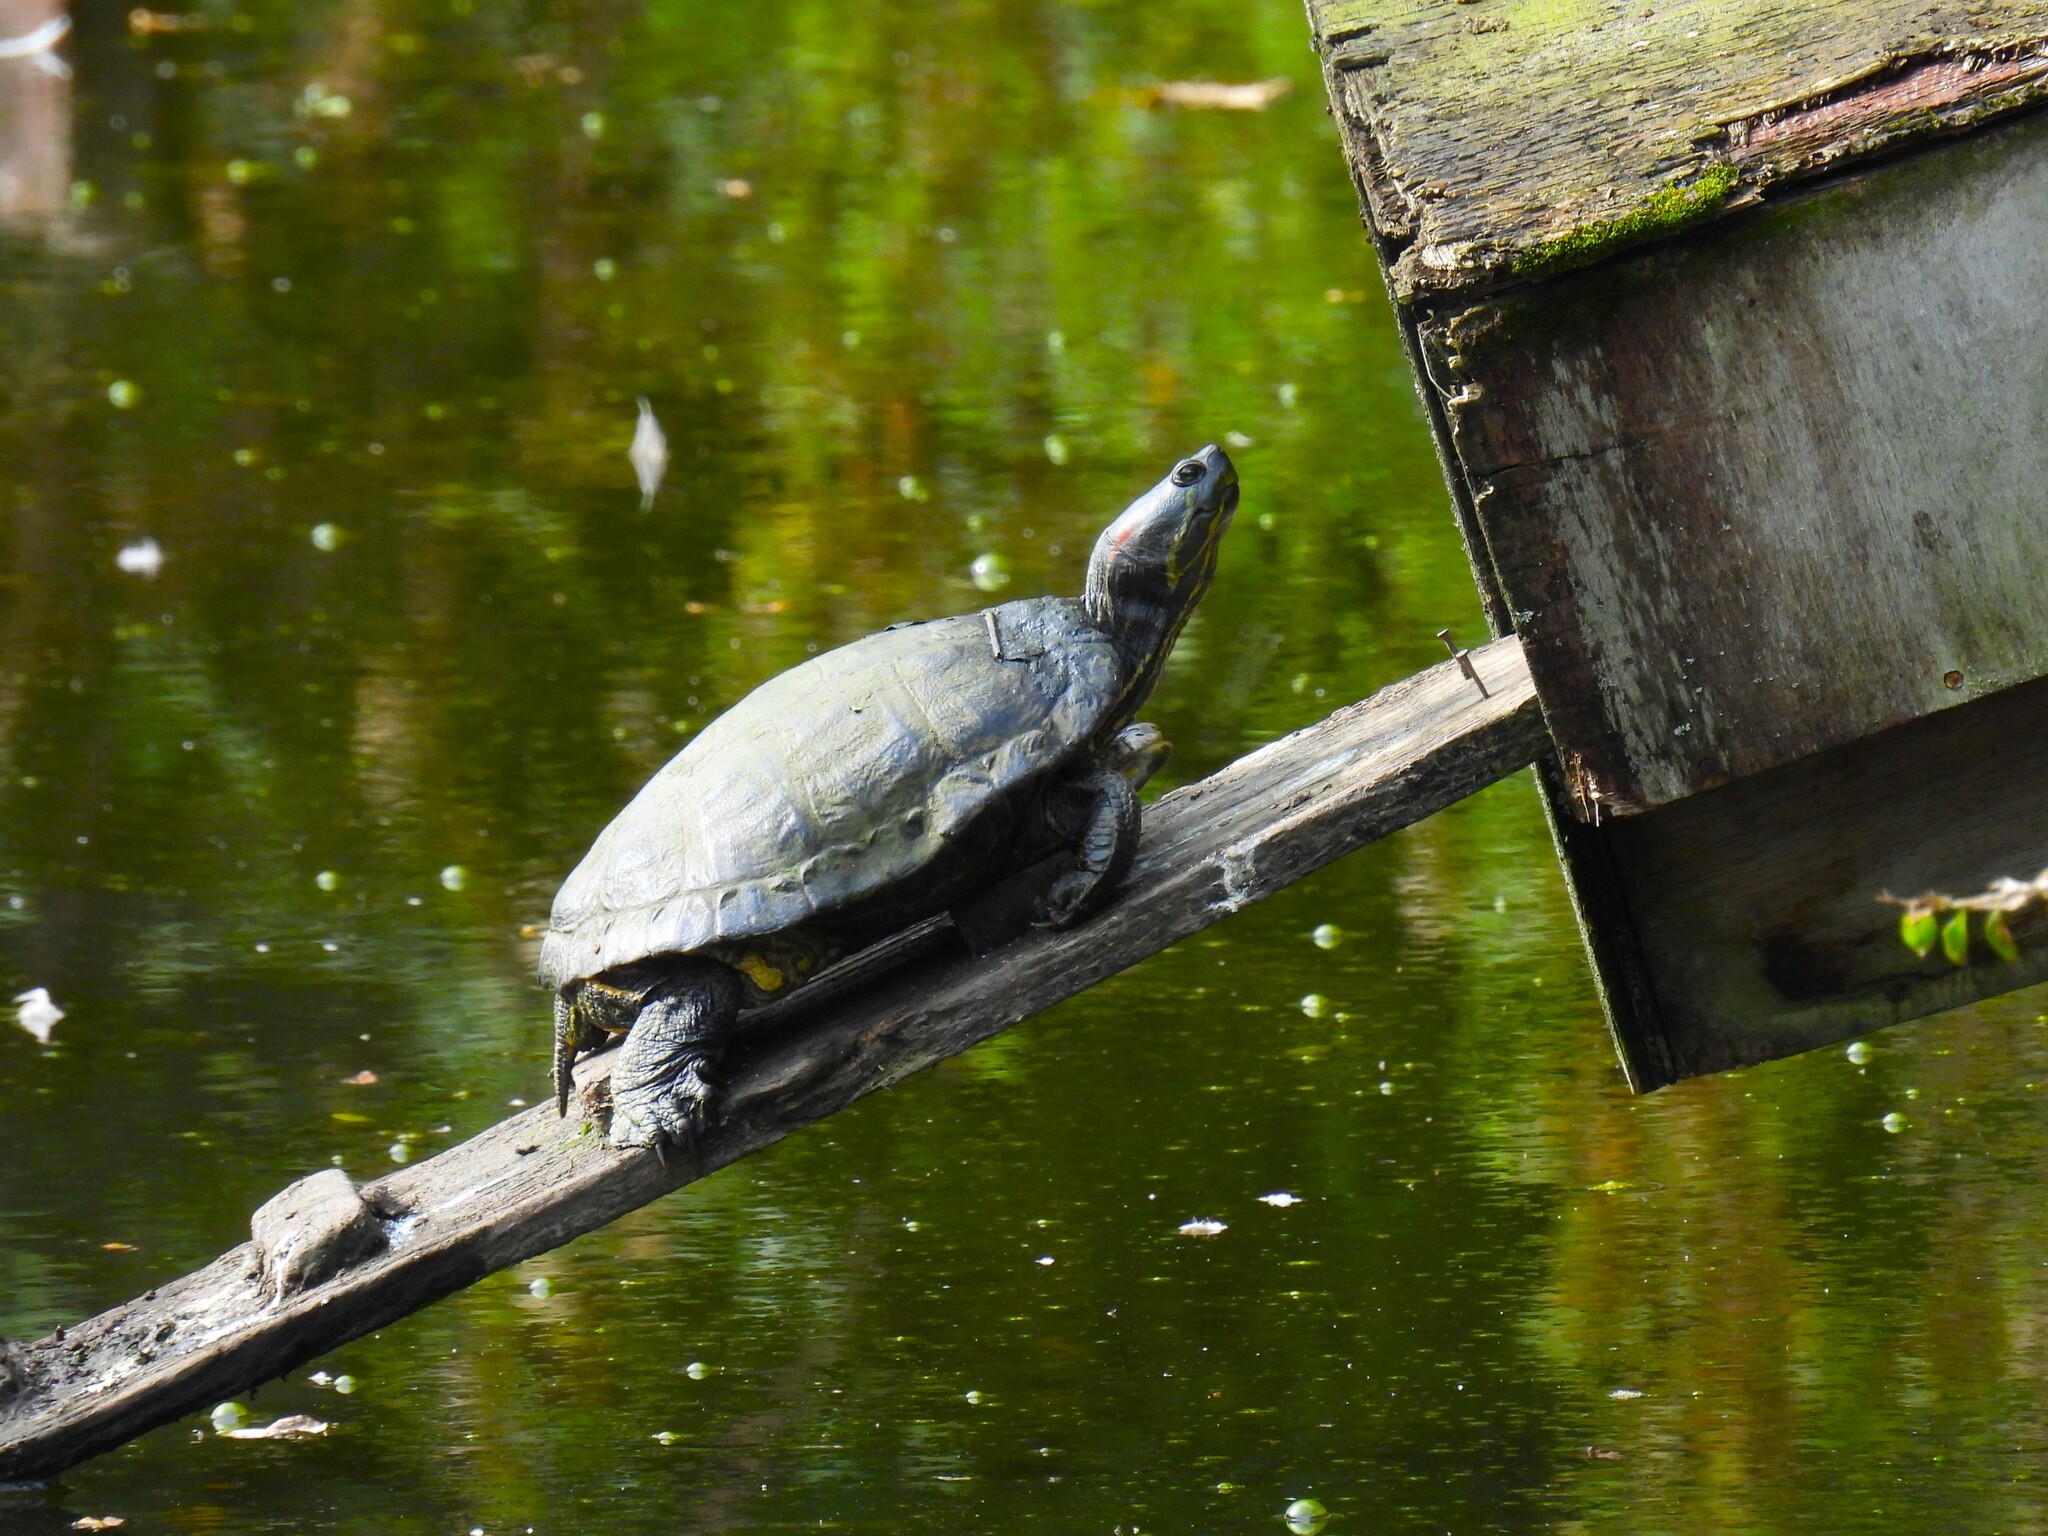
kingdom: Animalia
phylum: Chordata
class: Testudines
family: Emydidae
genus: Trachemys
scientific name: Trachemys scripta
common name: Slider
